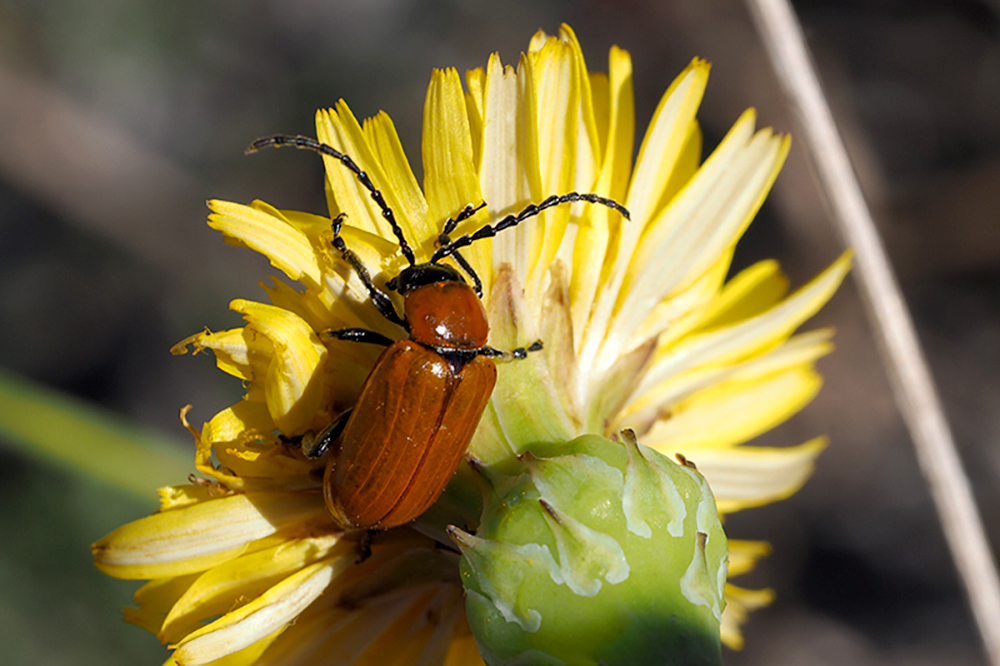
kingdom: Animalia
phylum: Arthropoda
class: Insecta
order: Coleoptera
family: Chrysomelidae
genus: Exosoma
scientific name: Exosoma lusitanicum
